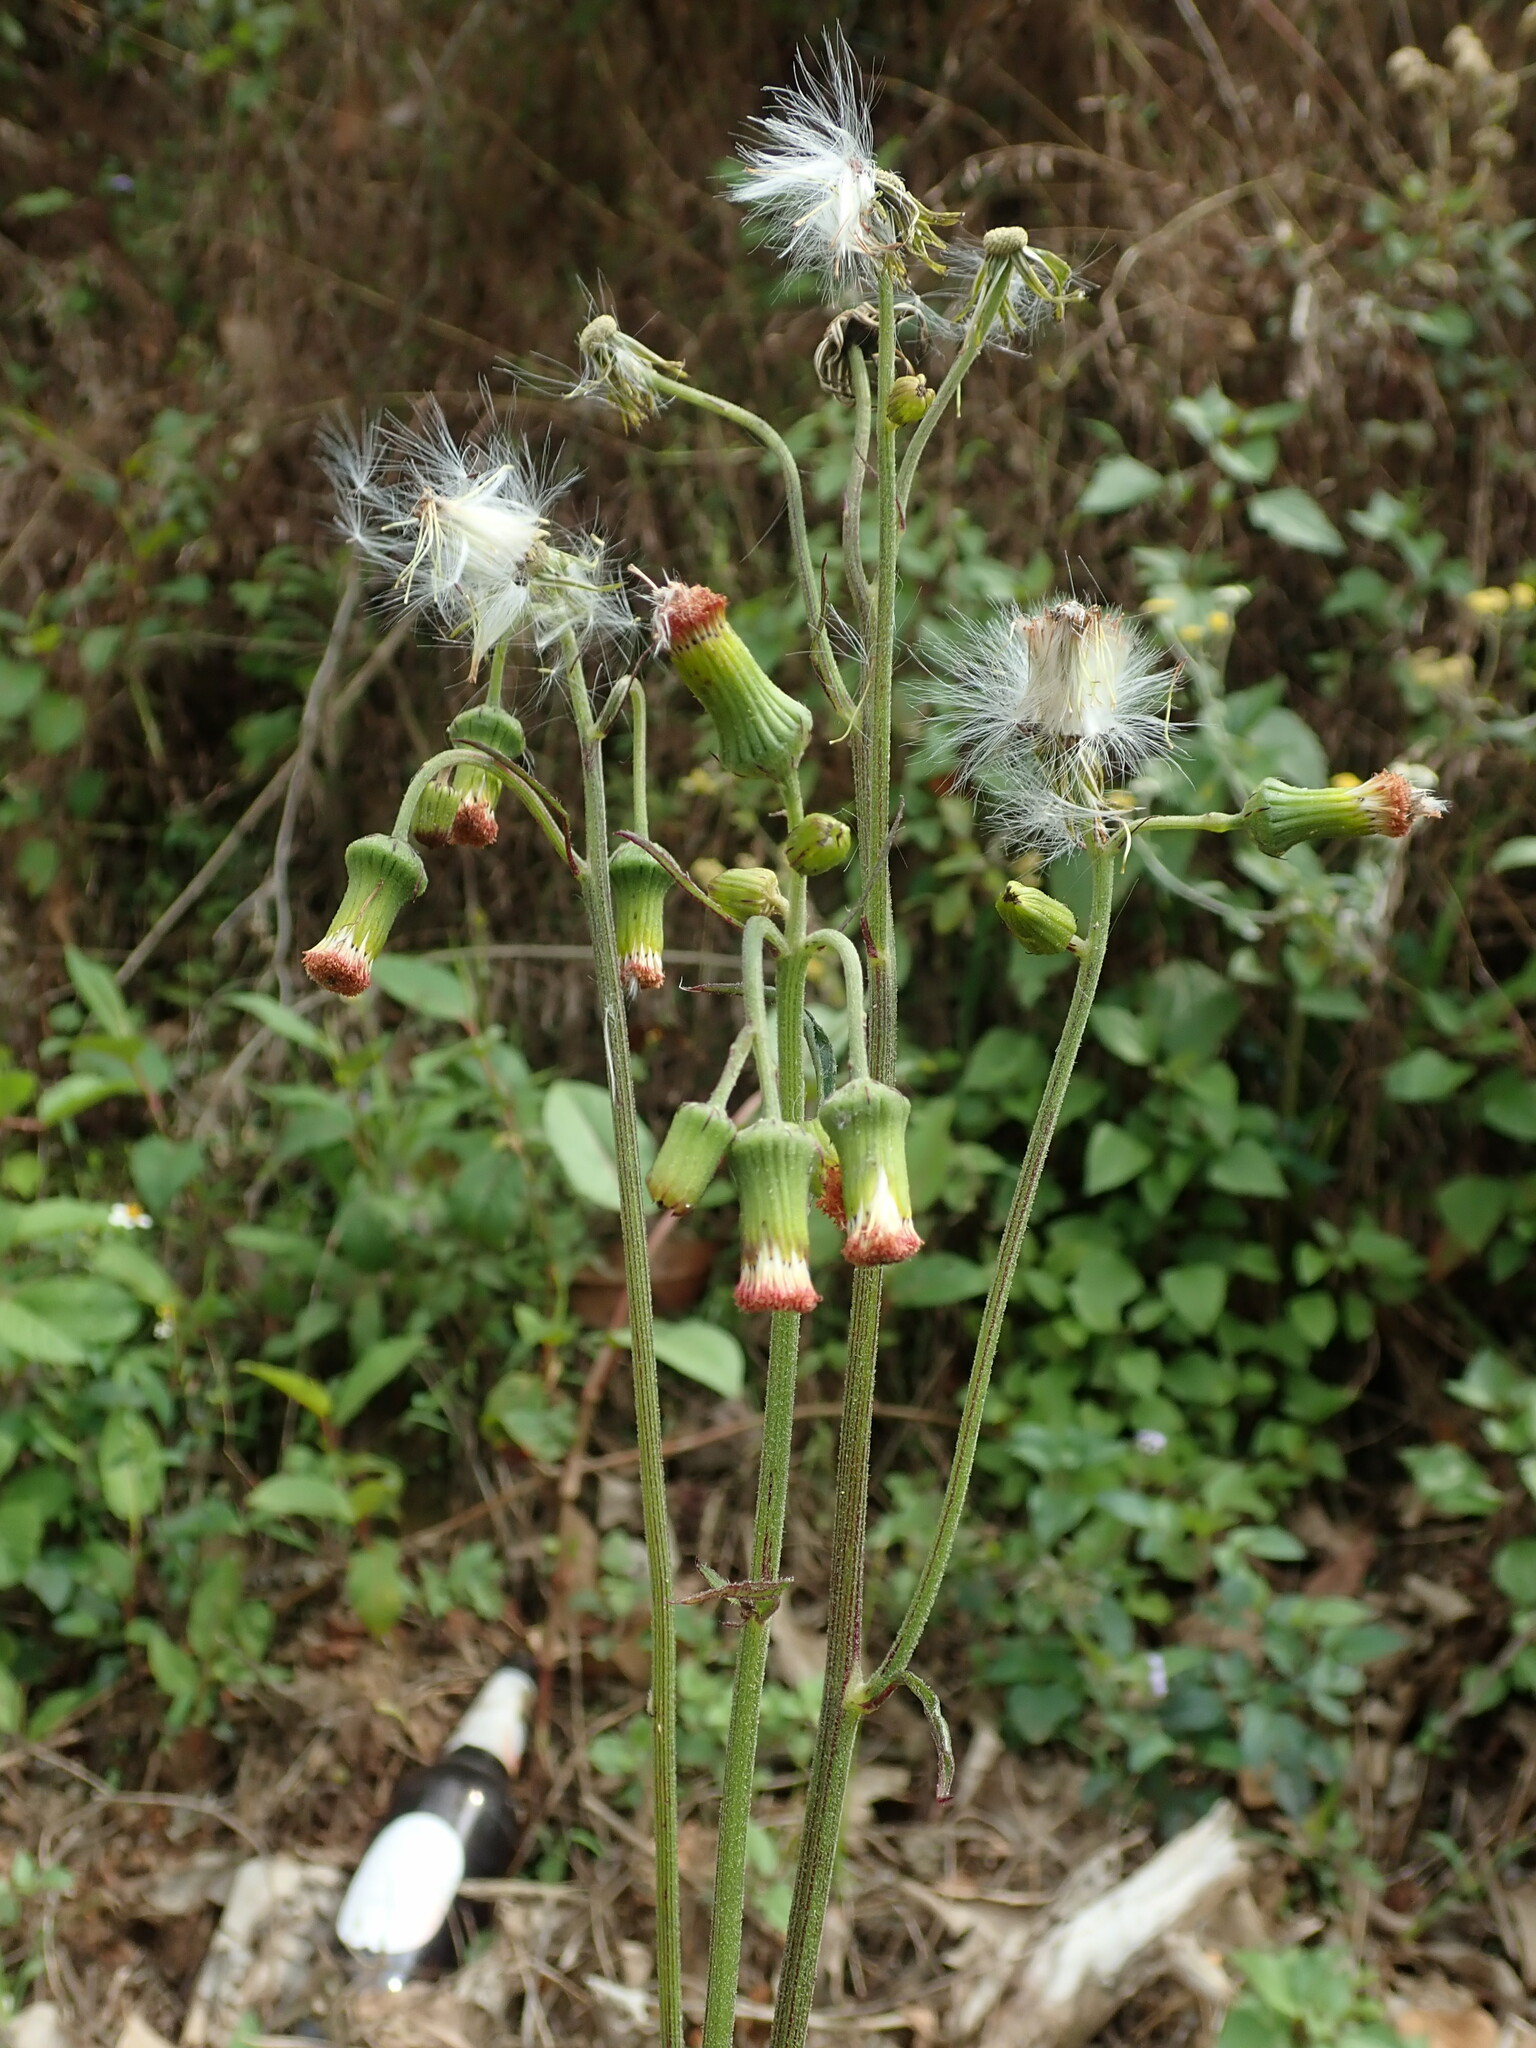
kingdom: Plantae
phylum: Tracheophyta
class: Magnoliopsida
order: Asterales
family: Asteraceae
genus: Crassocephalum
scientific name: Crassocephalum crepidioides
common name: Redflower ragleaf
